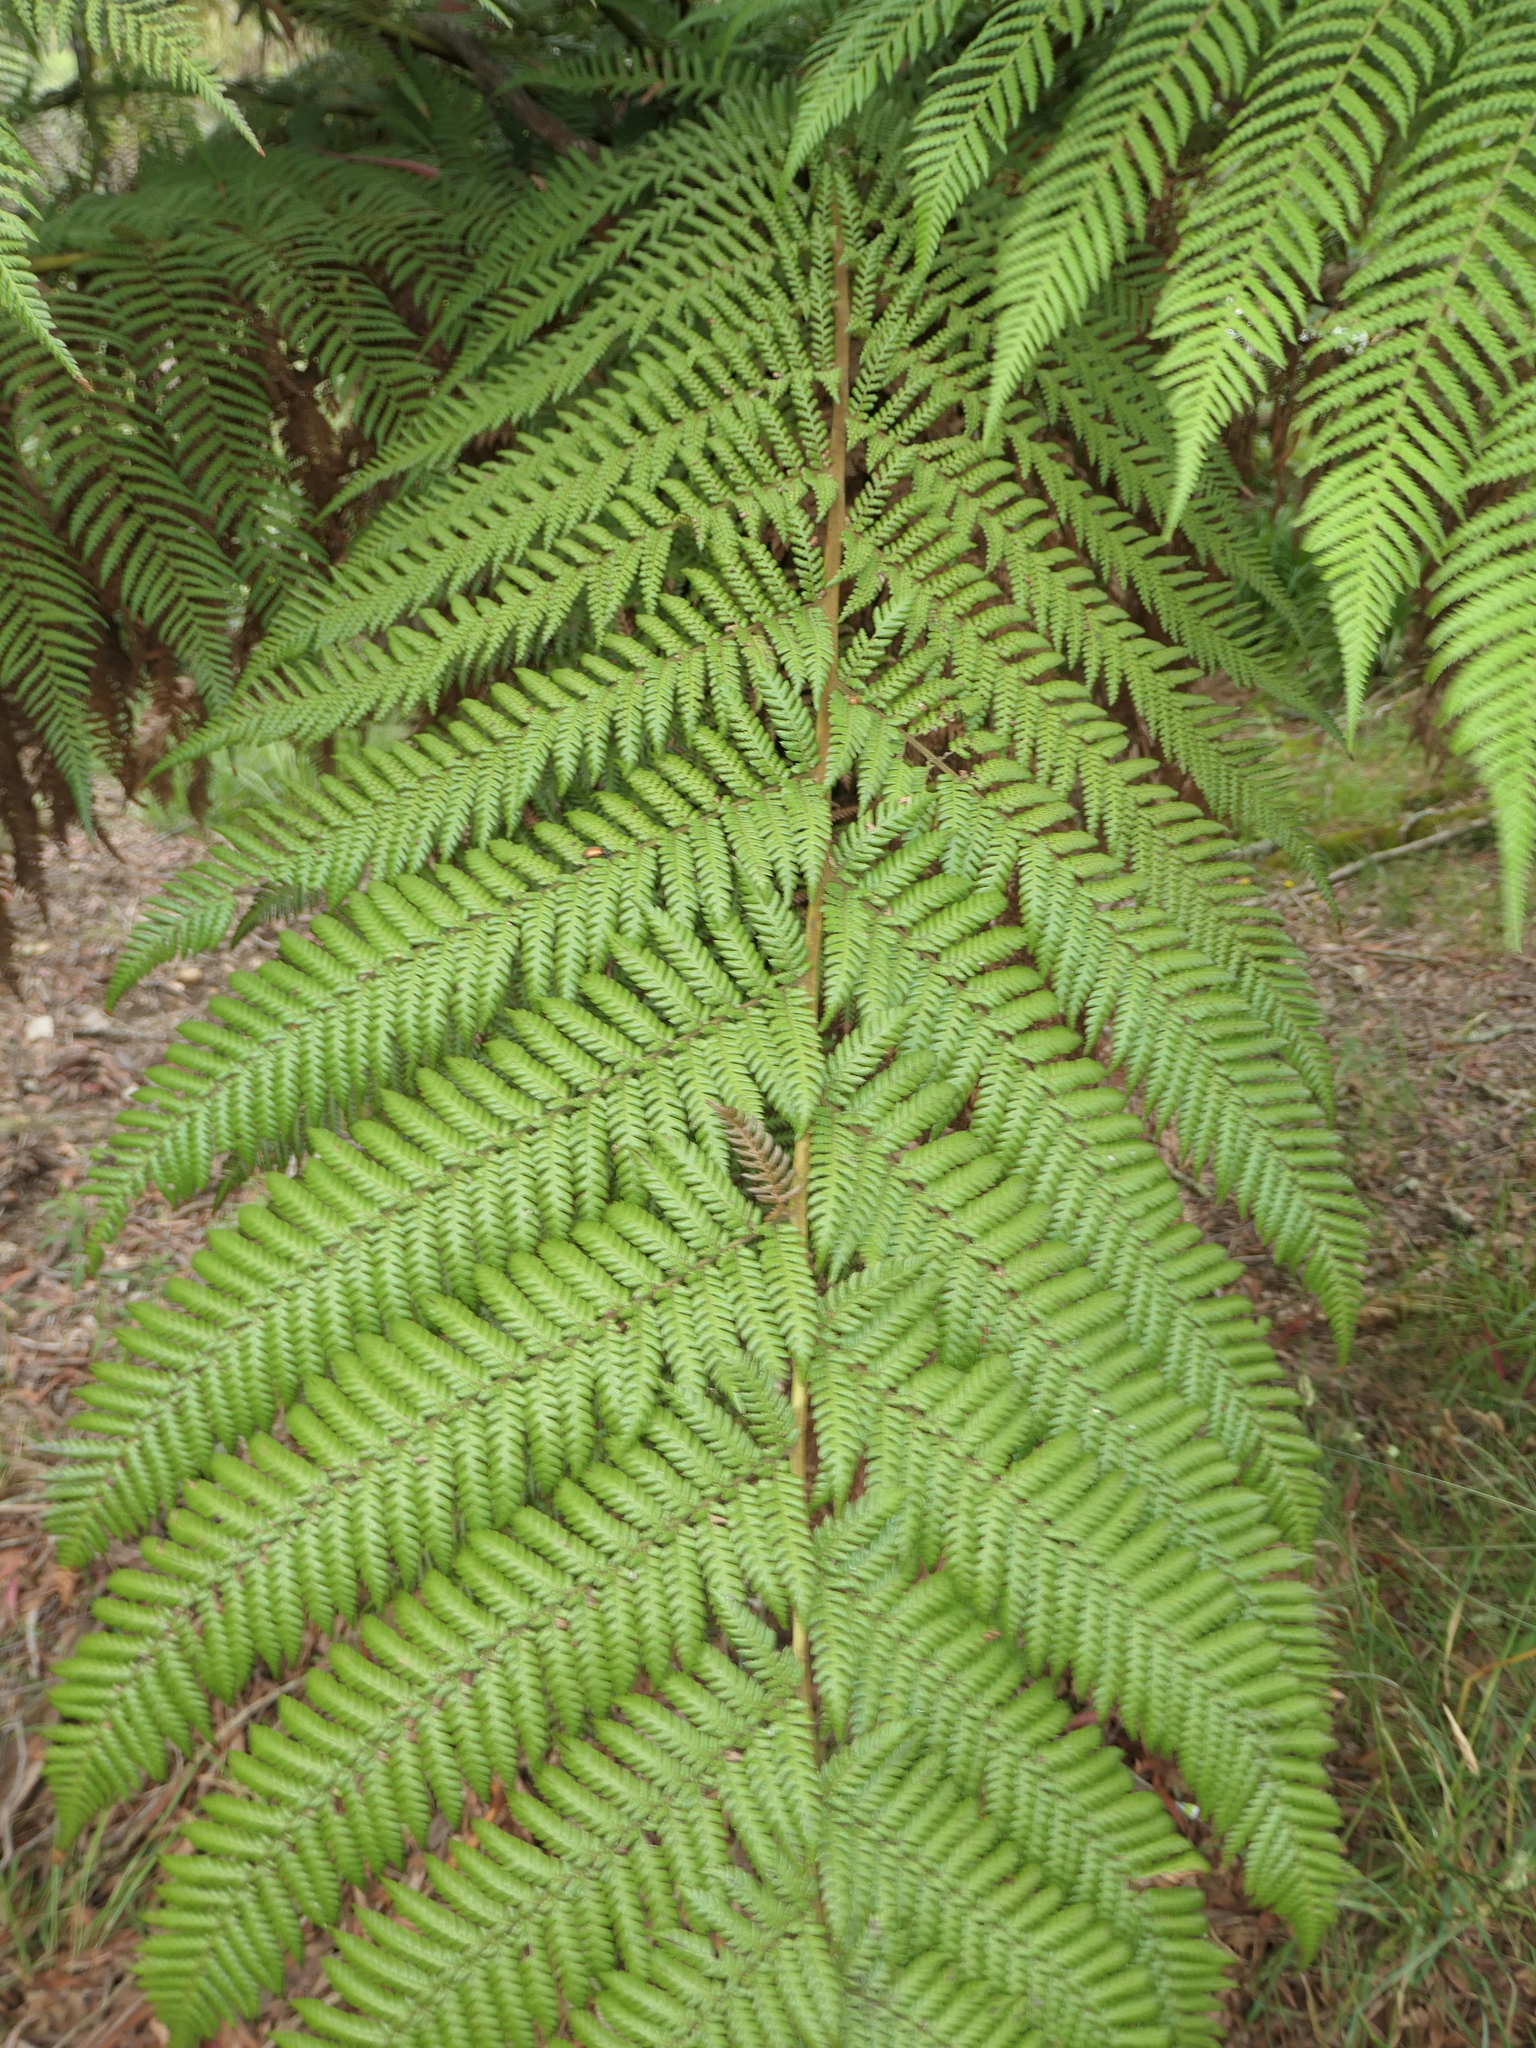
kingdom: Plantae
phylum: Tracheophyta
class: Polypodiopsida
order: Cyatheales
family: Dicksoniaceae
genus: Dicksonia
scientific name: Dicksonia antarctica
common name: Australian treefern
